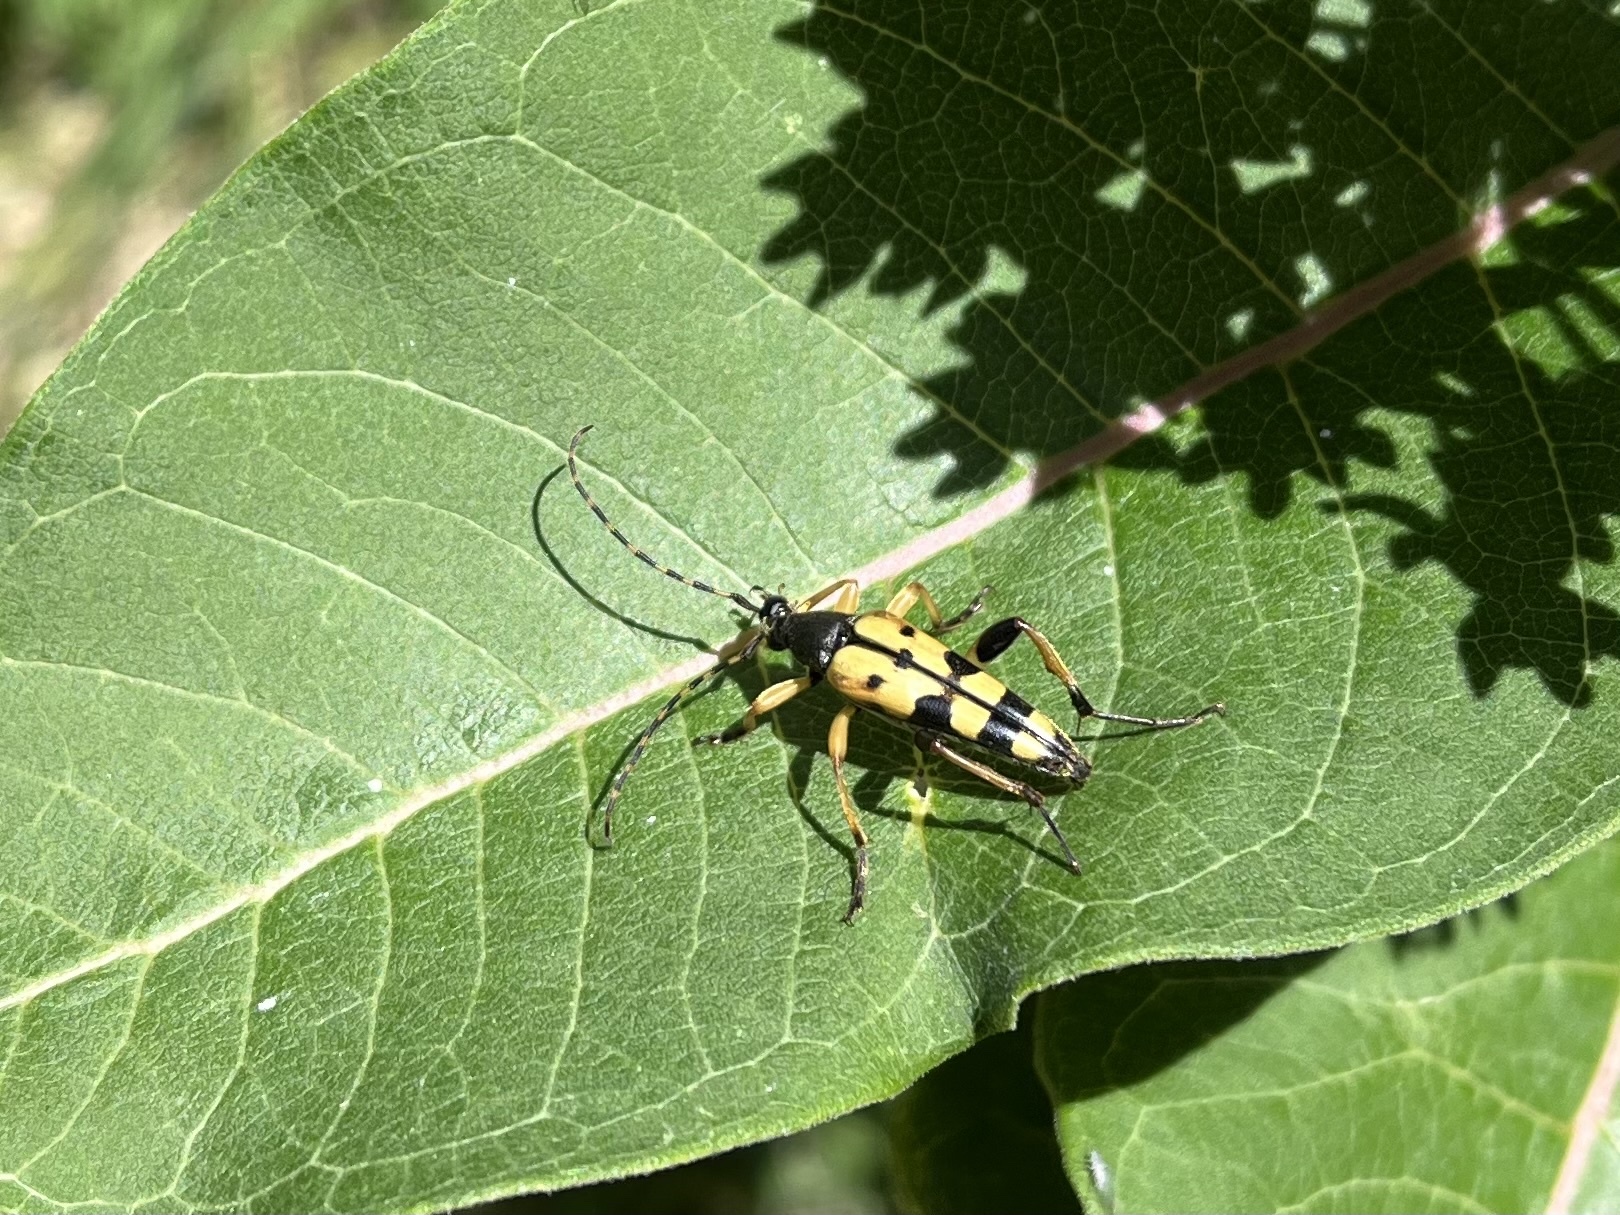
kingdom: Animalia
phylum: Arthropoda
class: Insecta
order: Coleoptera
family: Cerambycidae
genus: Rutpela
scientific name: Rutpela maculata
